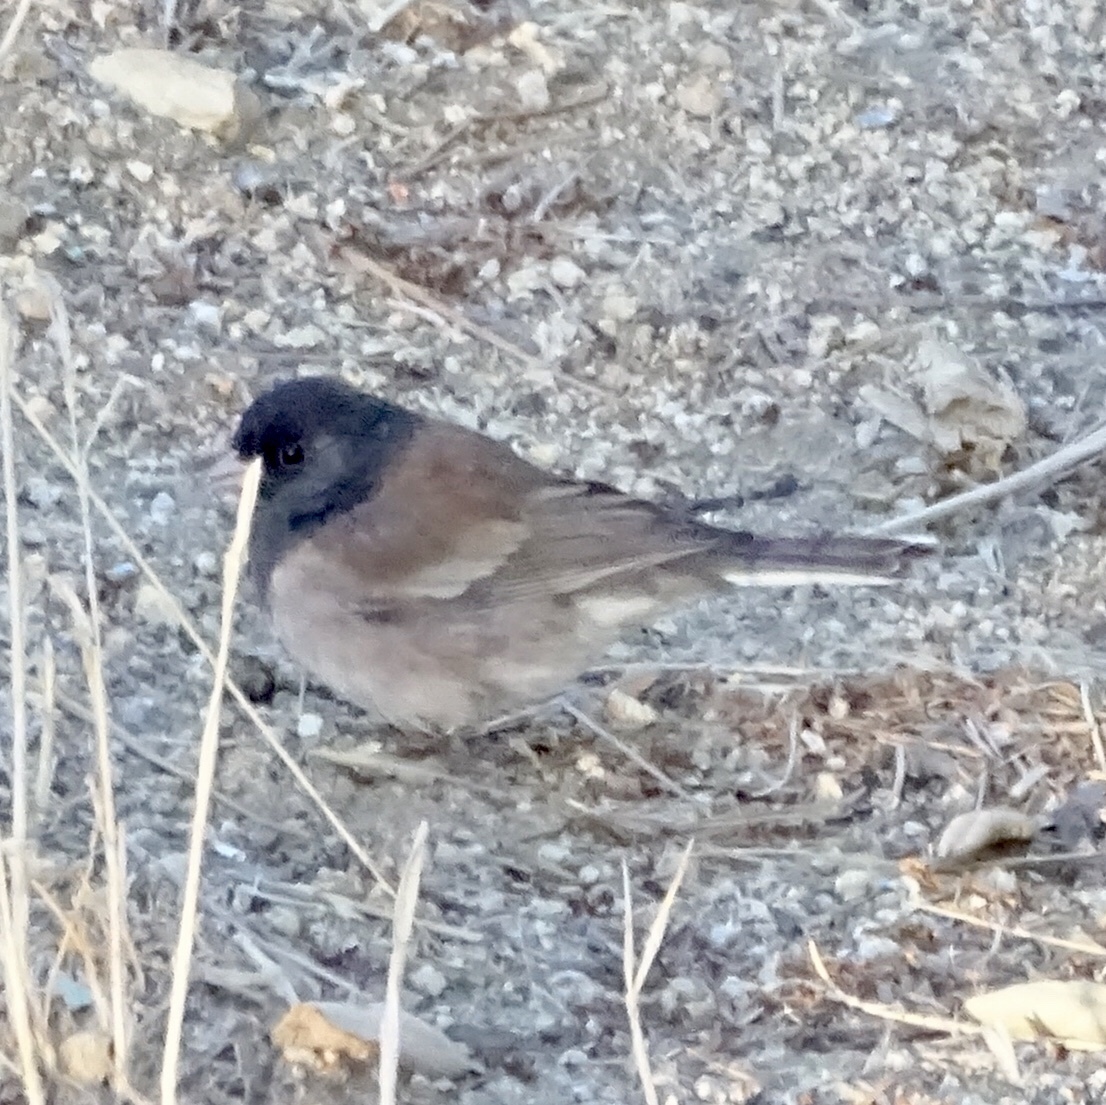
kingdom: Animalia
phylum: Chordata
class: Aves
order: Passeriformes
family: Passerellidae
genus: Junco
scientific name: Junco hyemalis
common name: Dark-eyed junco
